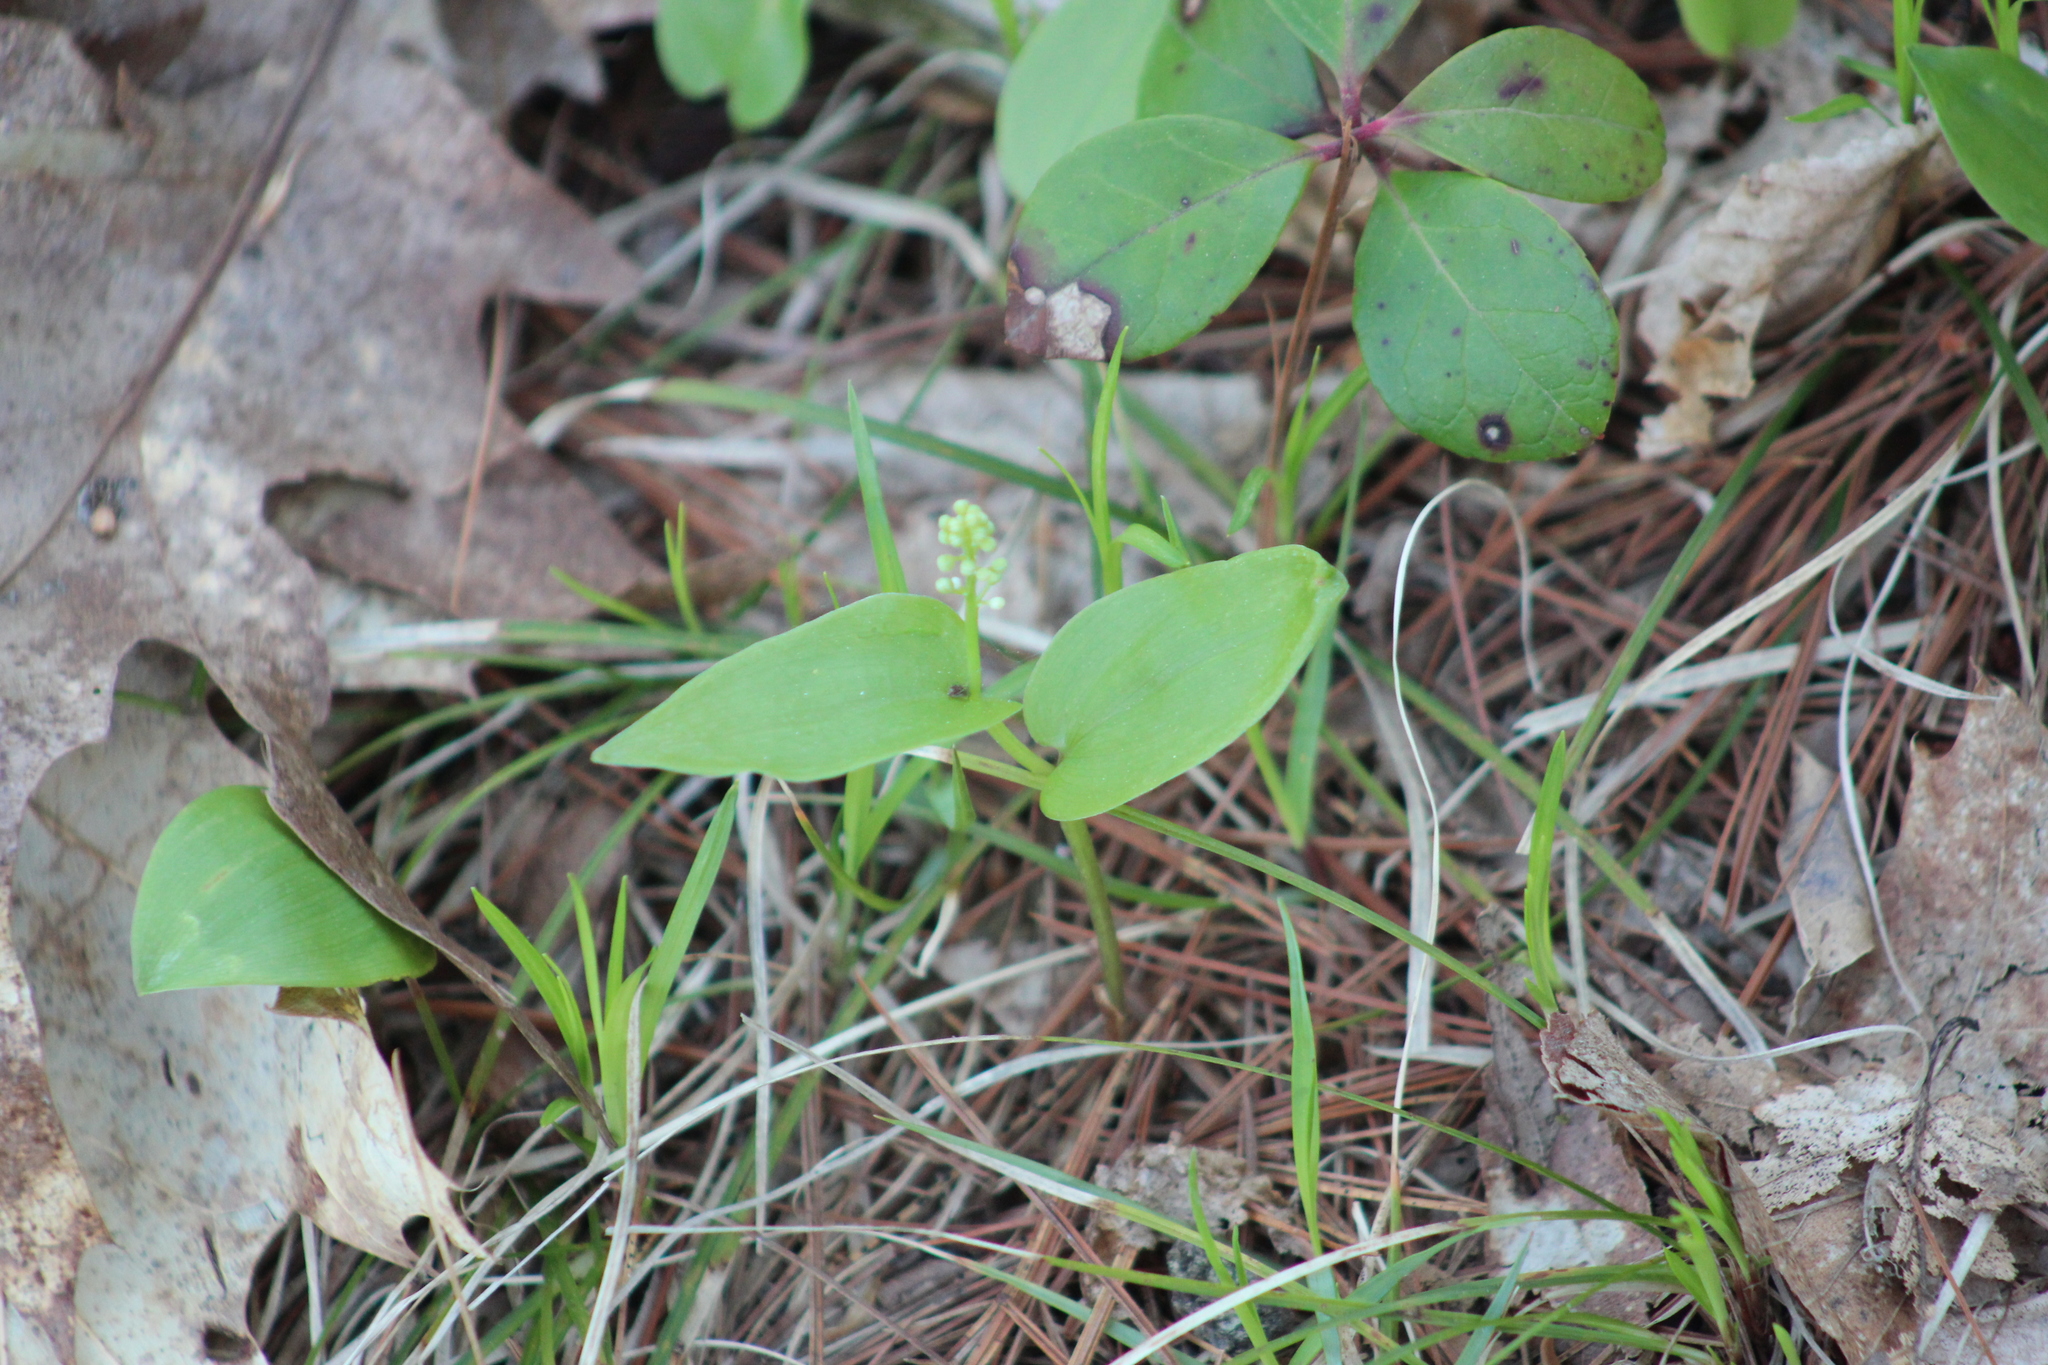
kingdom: Plantae
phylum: Tracheophyta
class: Liliopsida
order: Asparagales
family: Asparagaceae
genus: Maianthemum
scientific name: Maianthemum canadense
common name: False lily-of-the-valley
